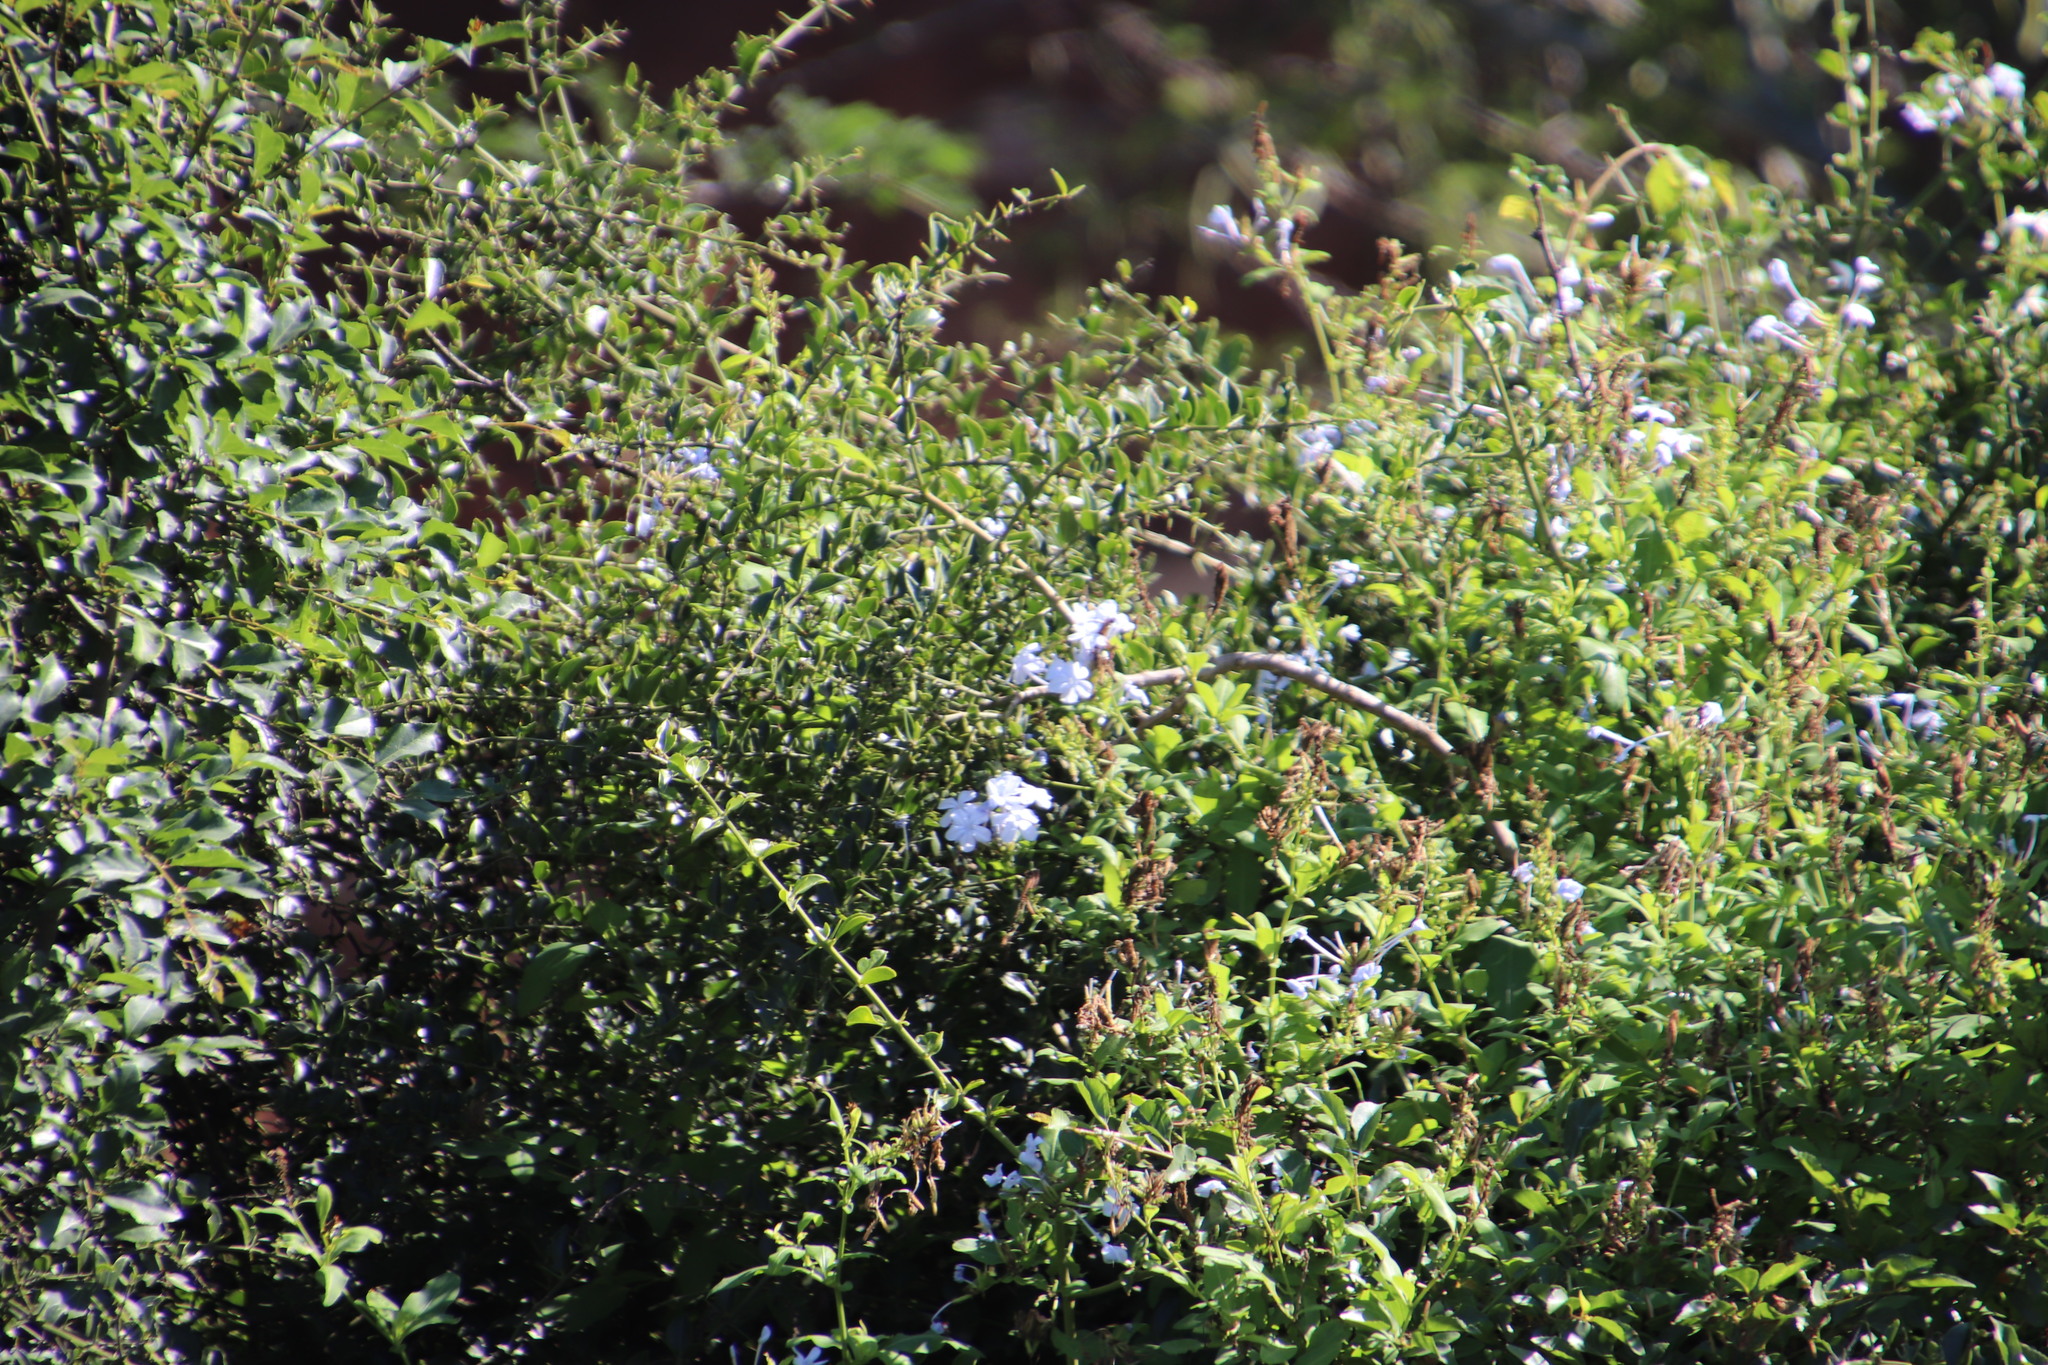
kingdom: Plantae
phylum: Tracheophyta
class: Magnoliopsida
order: Caryophyllales
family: Plumbaginaceae
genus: Plumbago
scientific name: Plumbago auriculata
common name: Cape leadwort
